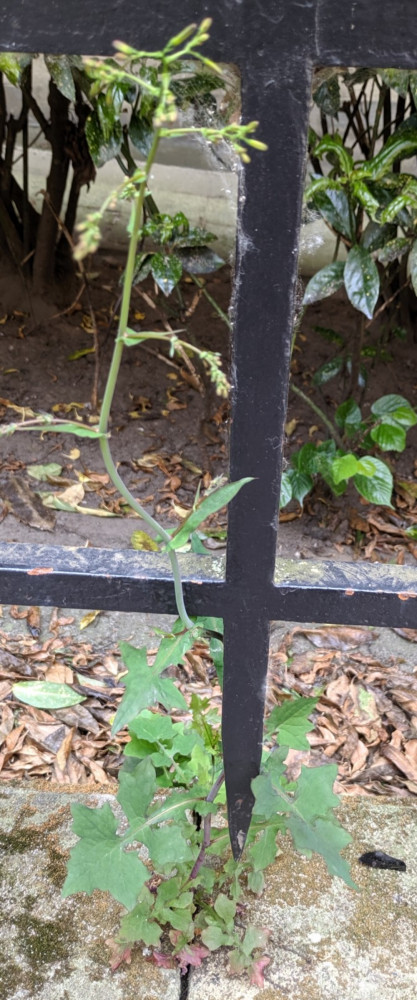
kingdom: Plantae
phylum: Tracheophyta
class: Magnoliopsida
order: Asterales
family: Asteraceae
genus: Mycelis
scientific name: Mycelis muralis
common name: Wall lettuce
